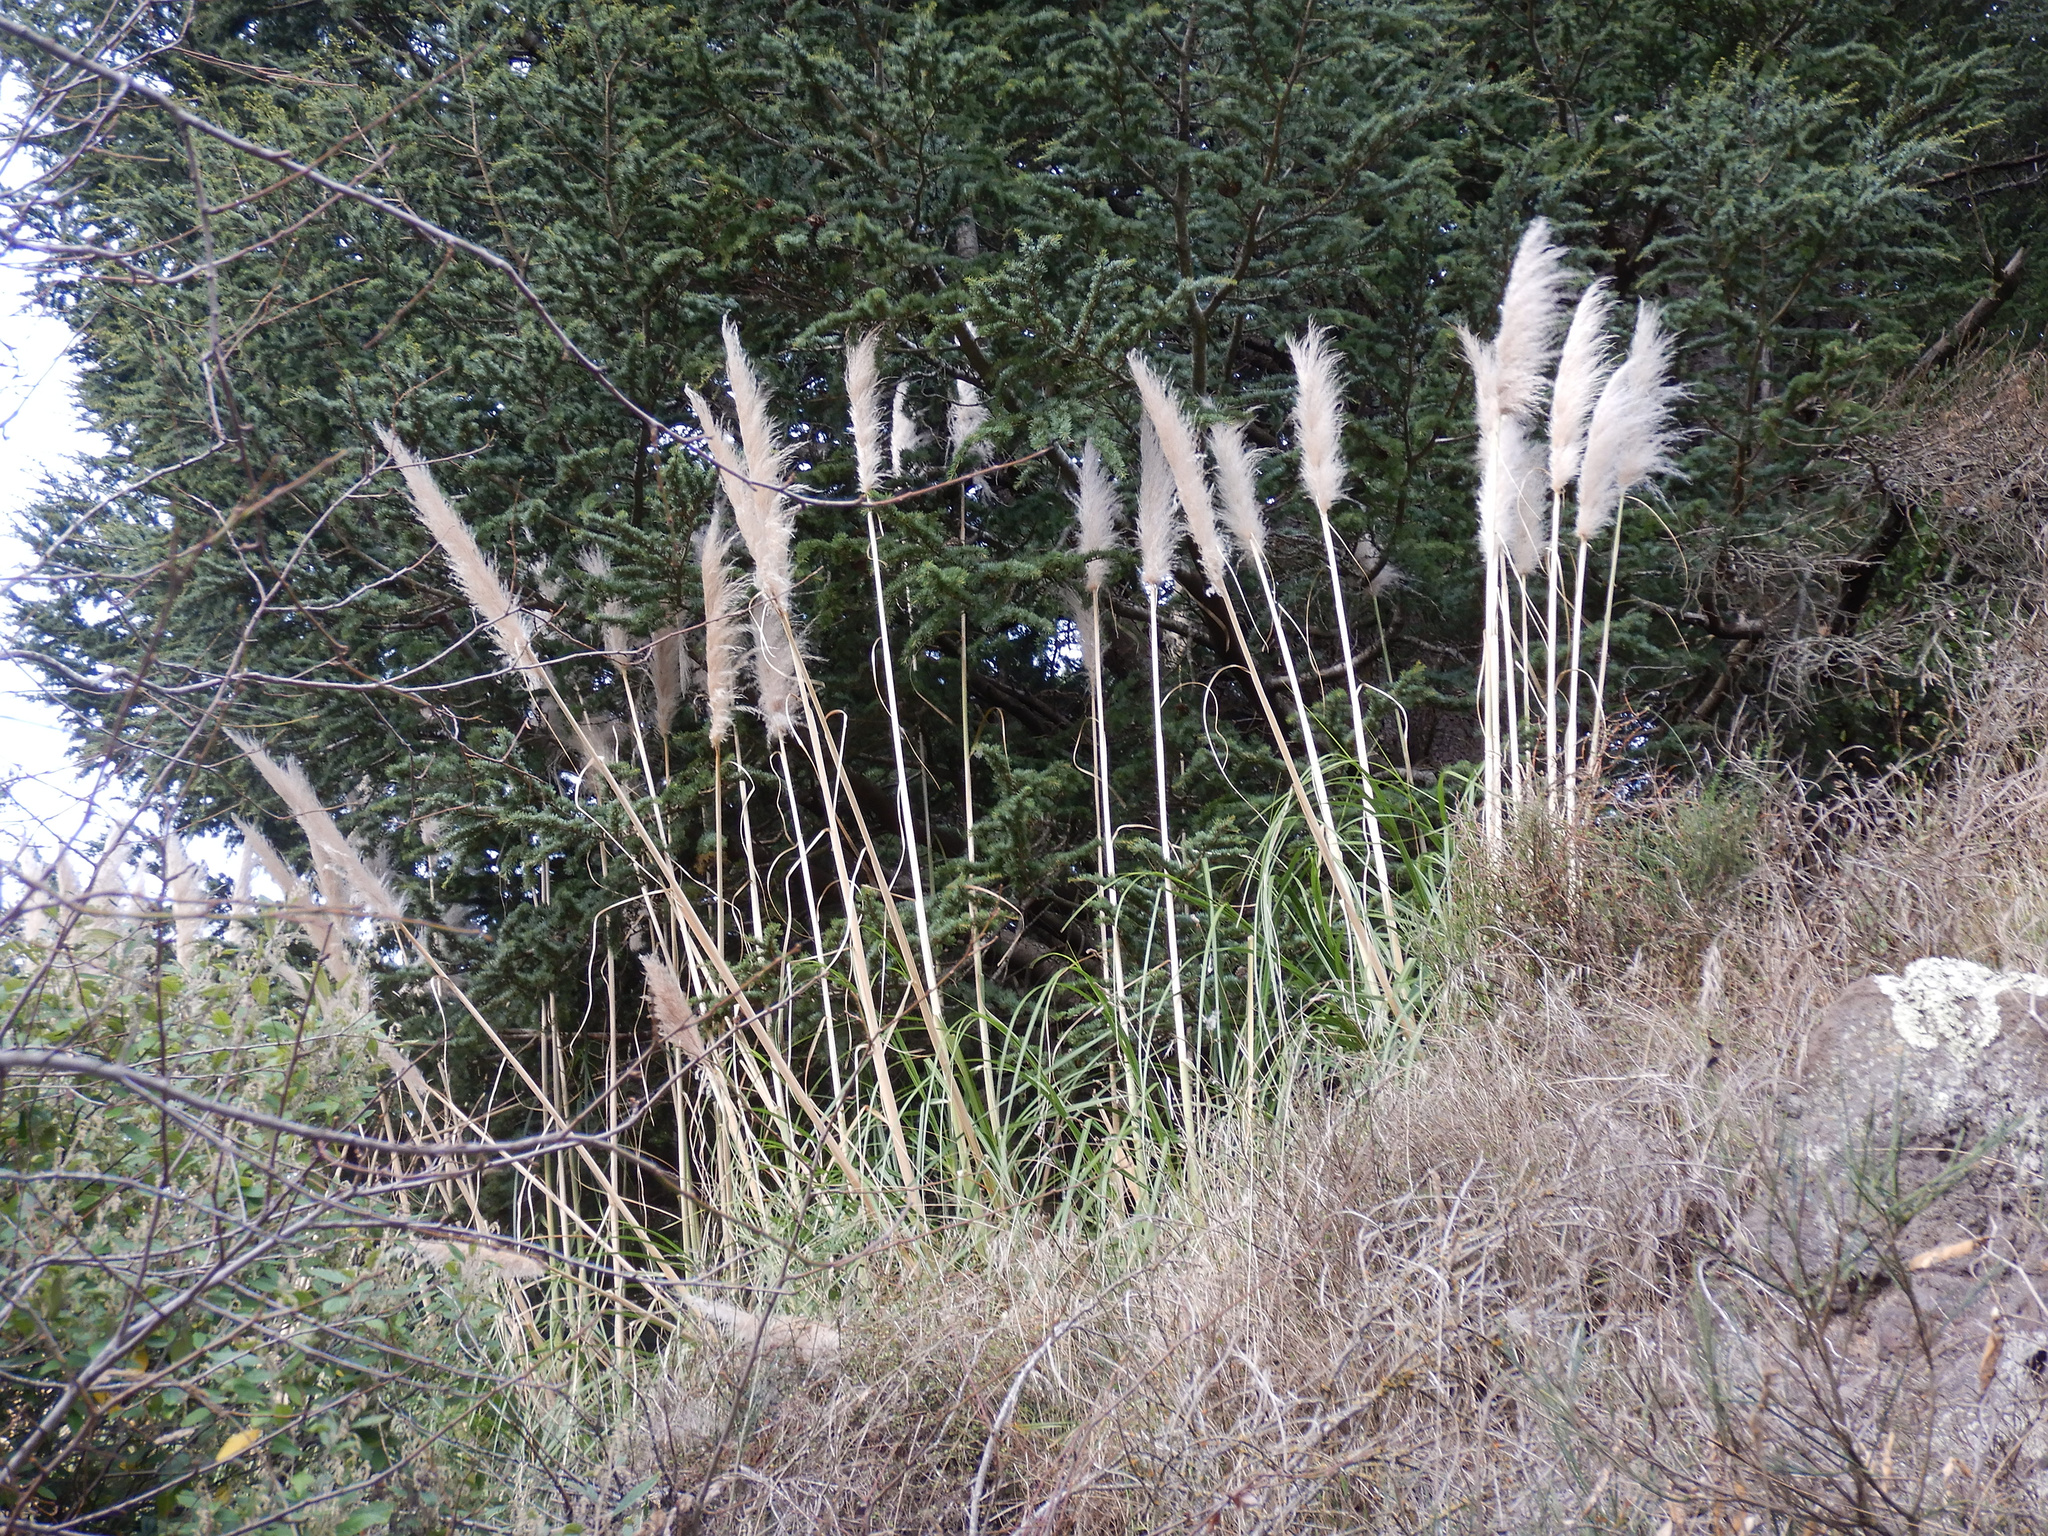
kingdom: Plantae
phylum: Tracheophyta
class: Liliopsida
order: Poales
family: Poaceae
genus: Cortaderia
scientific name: Cortaderia selloana
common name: Uruguayan pampas grass
